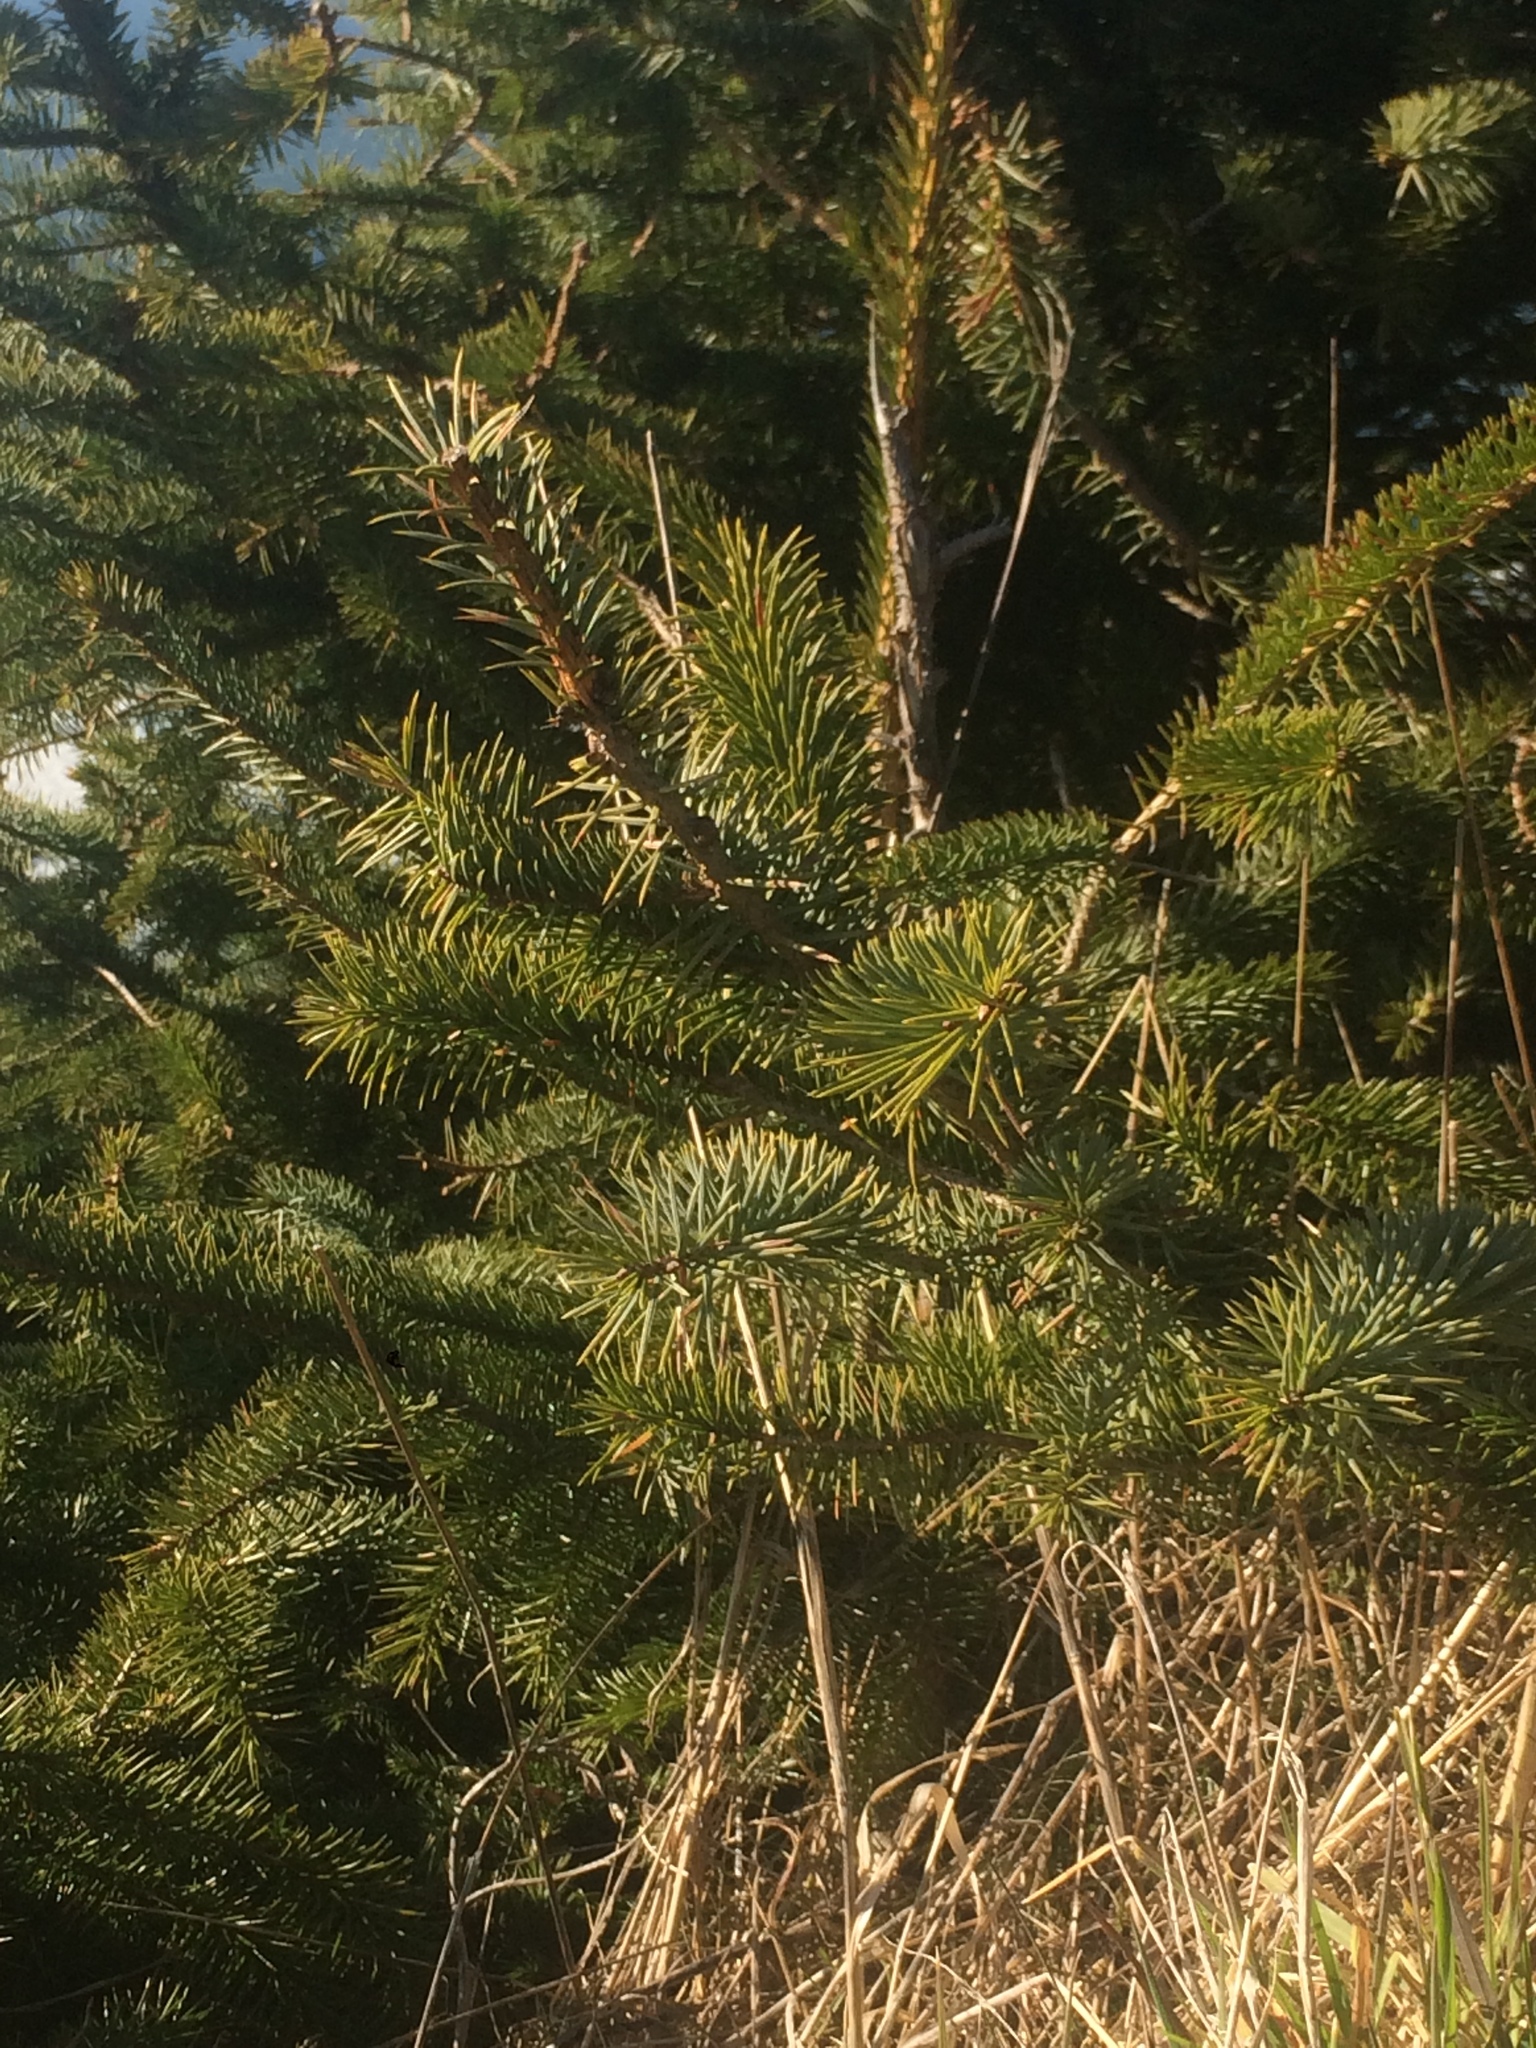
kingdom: Plantae
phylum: Tracheophyta
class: Pinopsida
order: Pinales
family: Pinaceae
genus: Picea
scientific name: Picea sitchensis
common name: Sitka spruce
